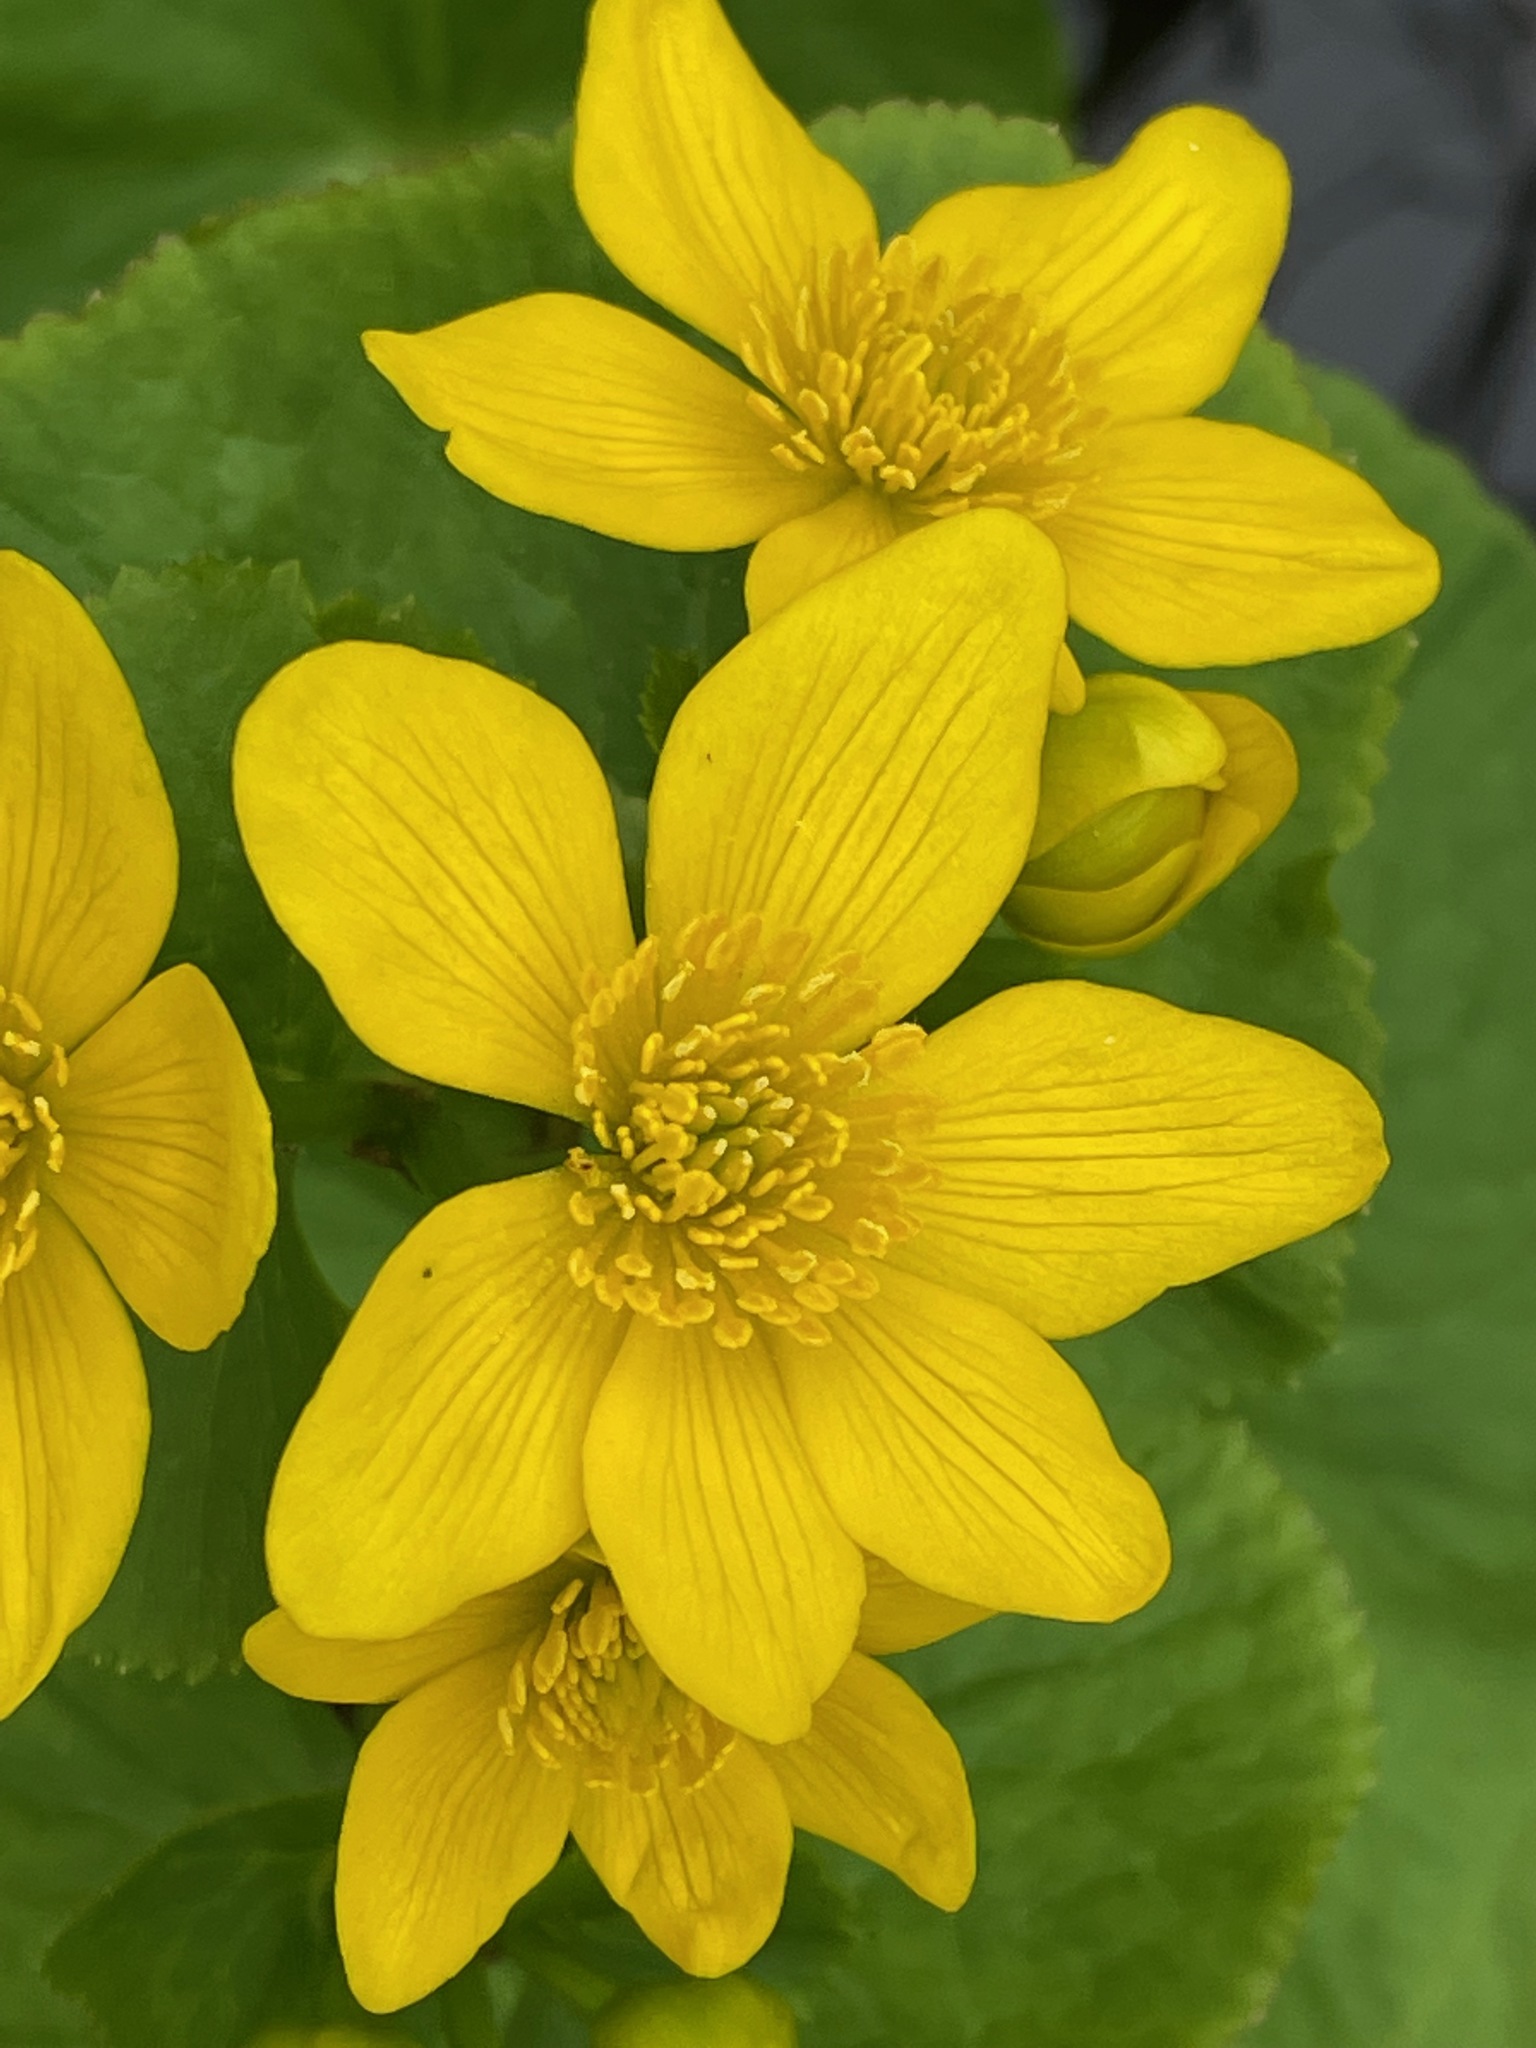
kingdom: Plantae
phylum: Tracheophyta
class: Magnoliopsida
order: Ranunculales
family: Ranunculaceae
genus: Caltha
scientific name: Caltha palustris
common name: Marsh marigold
